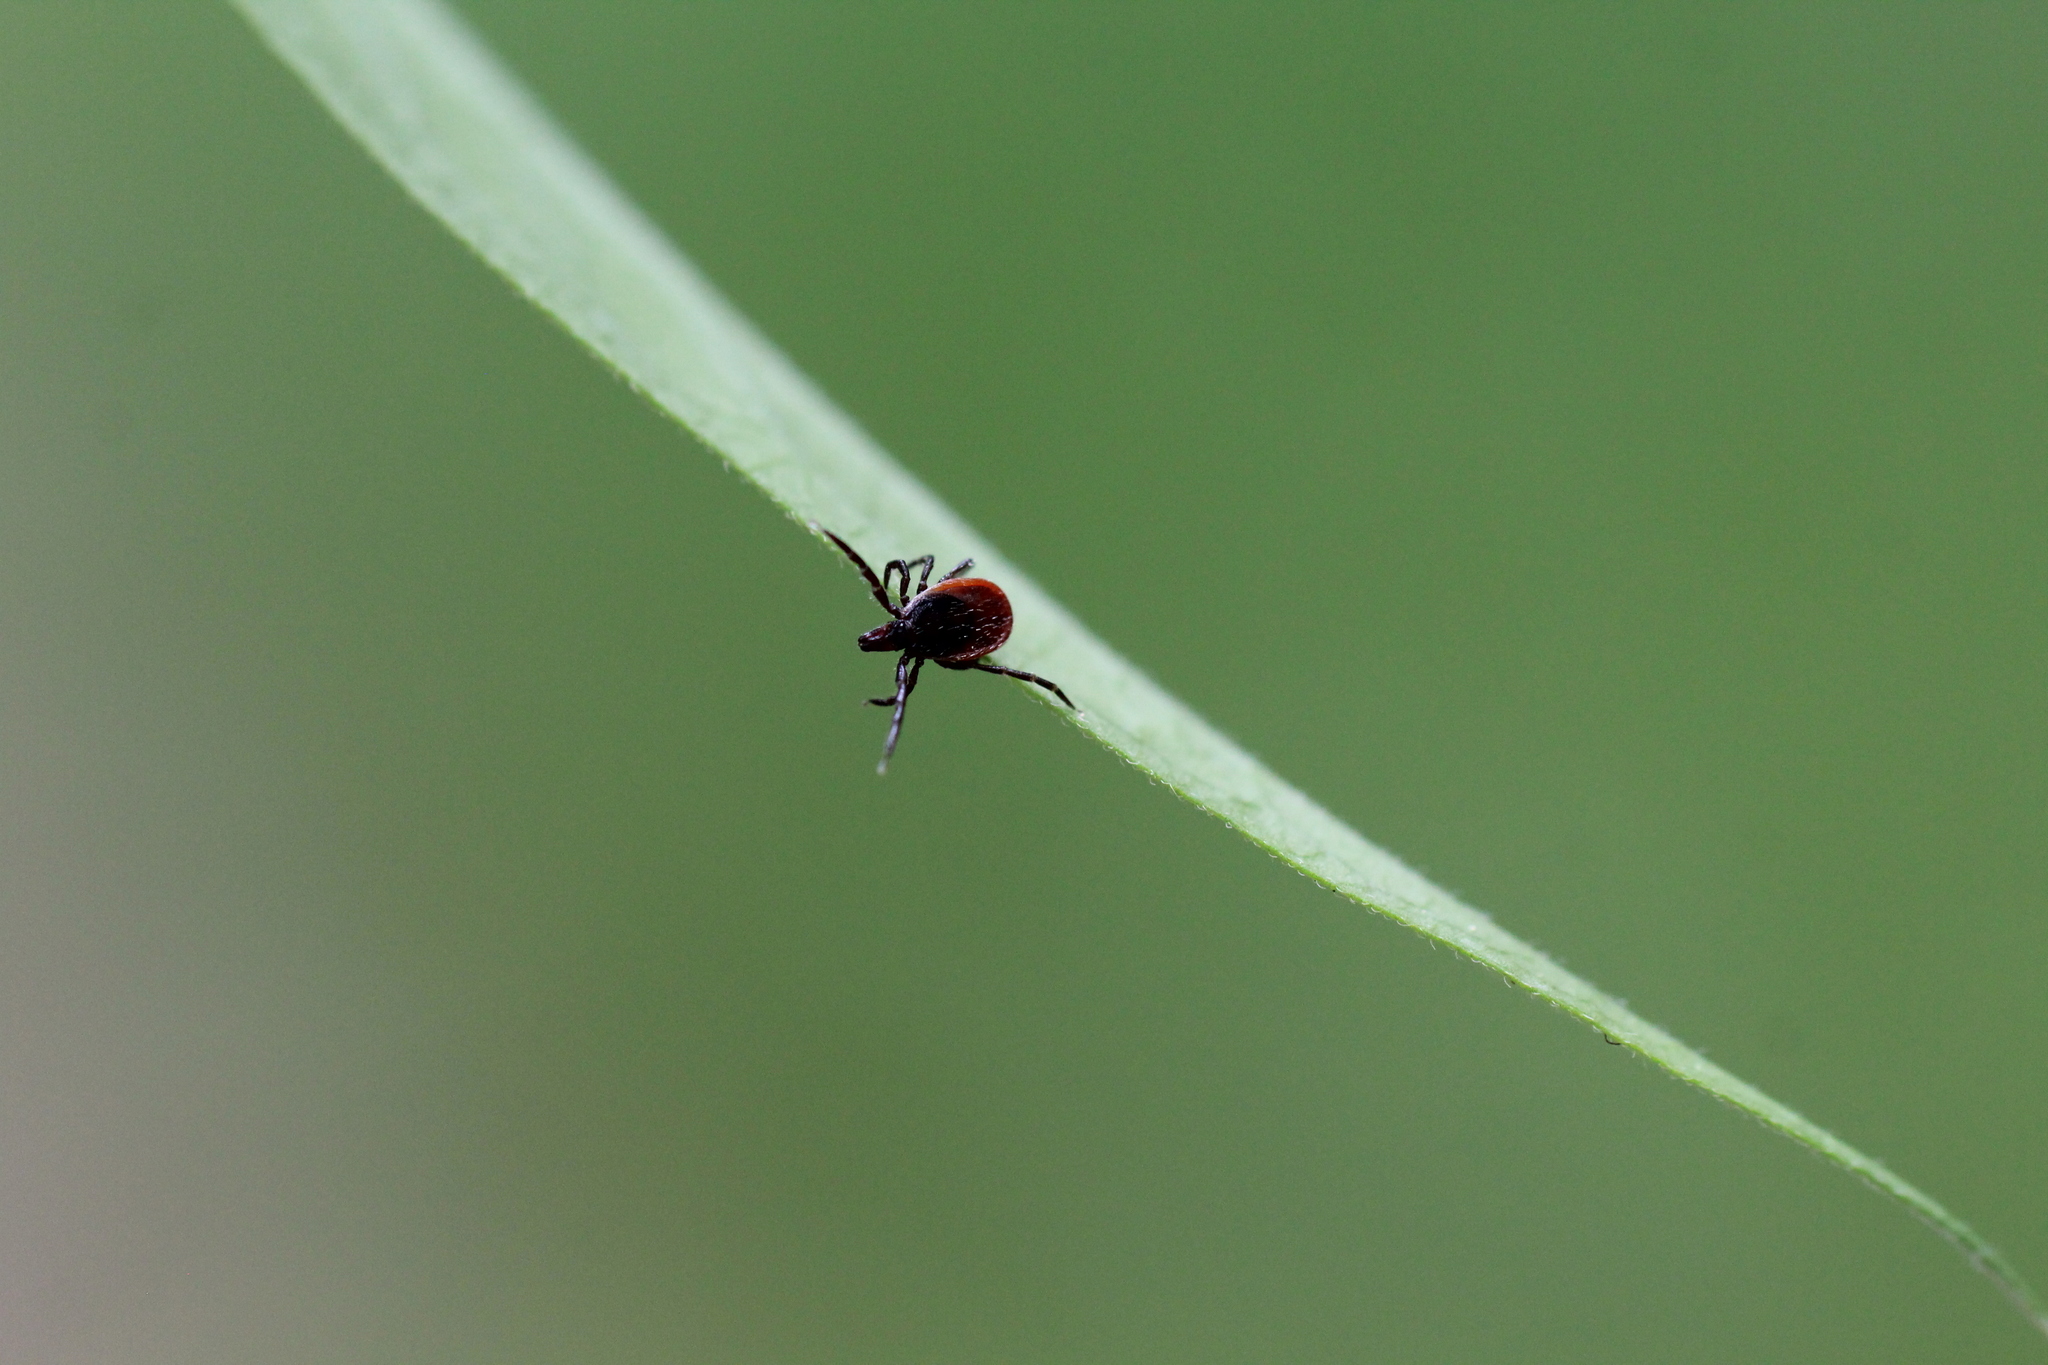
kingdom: Animalia
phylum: Arthropoda
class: Arachnida
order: Ixodida
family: Ixodidae
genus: Ixodes
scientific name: Ixodes ricinus
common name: Castor bean tick
